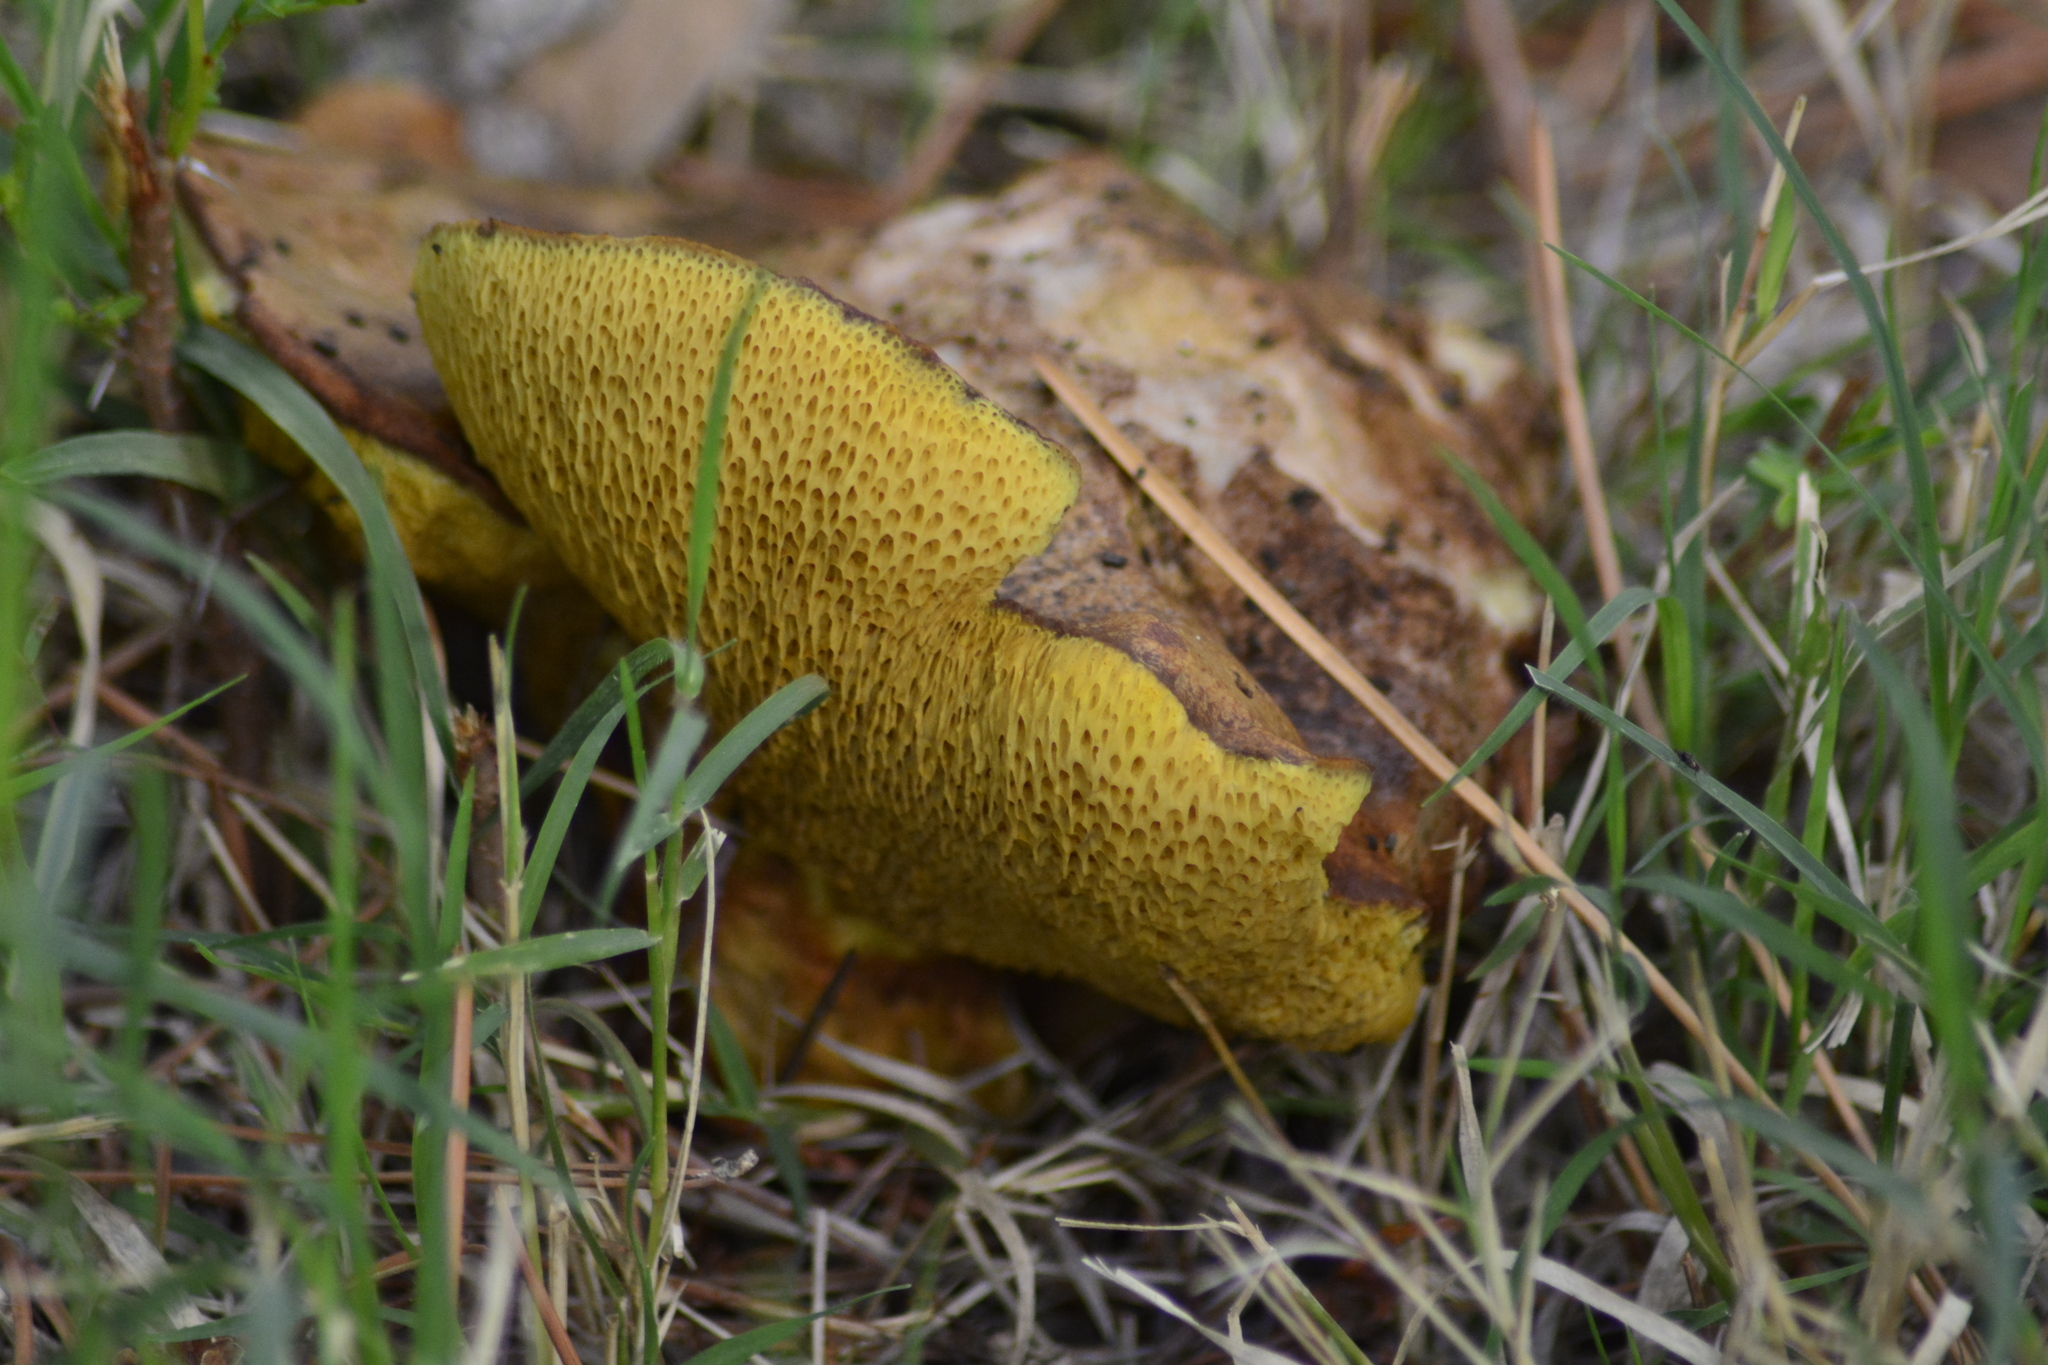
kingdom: Fungi
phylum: Basidiomycota
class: Agaricomycetes
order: Boletales
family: Suillaceae
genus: Suillus
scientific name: Suillus granulatus
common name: Weeping bolete
